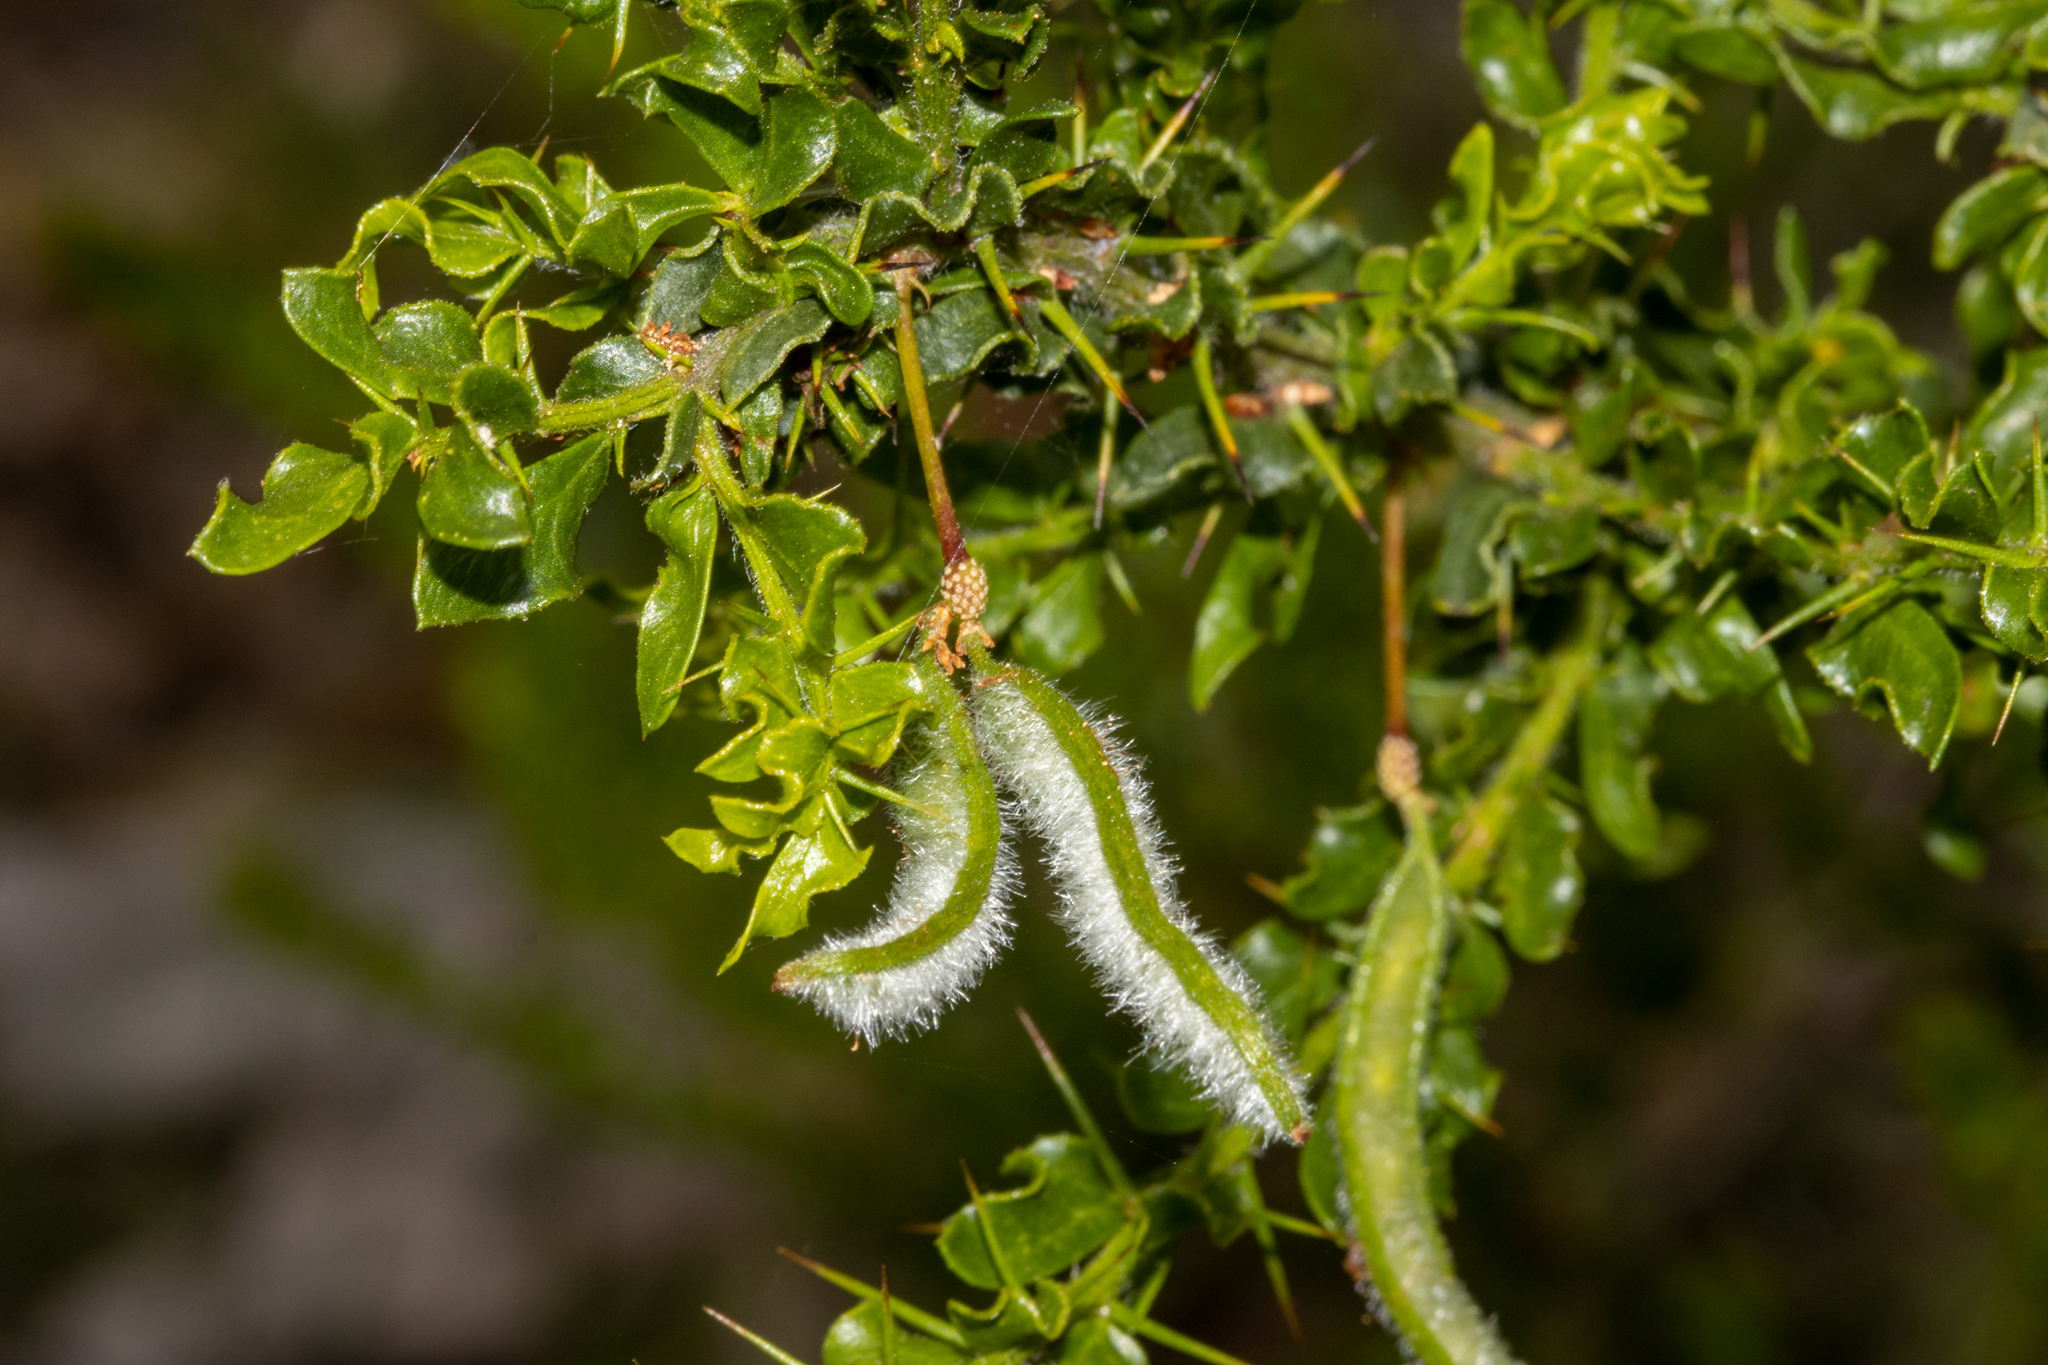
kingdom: Plantae
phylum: Tracheophyta
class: Magnoliopsida
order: Fabales
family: Fabaceae
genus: Acacia
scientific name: Acacia paradoxa
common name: Paradox acacia
